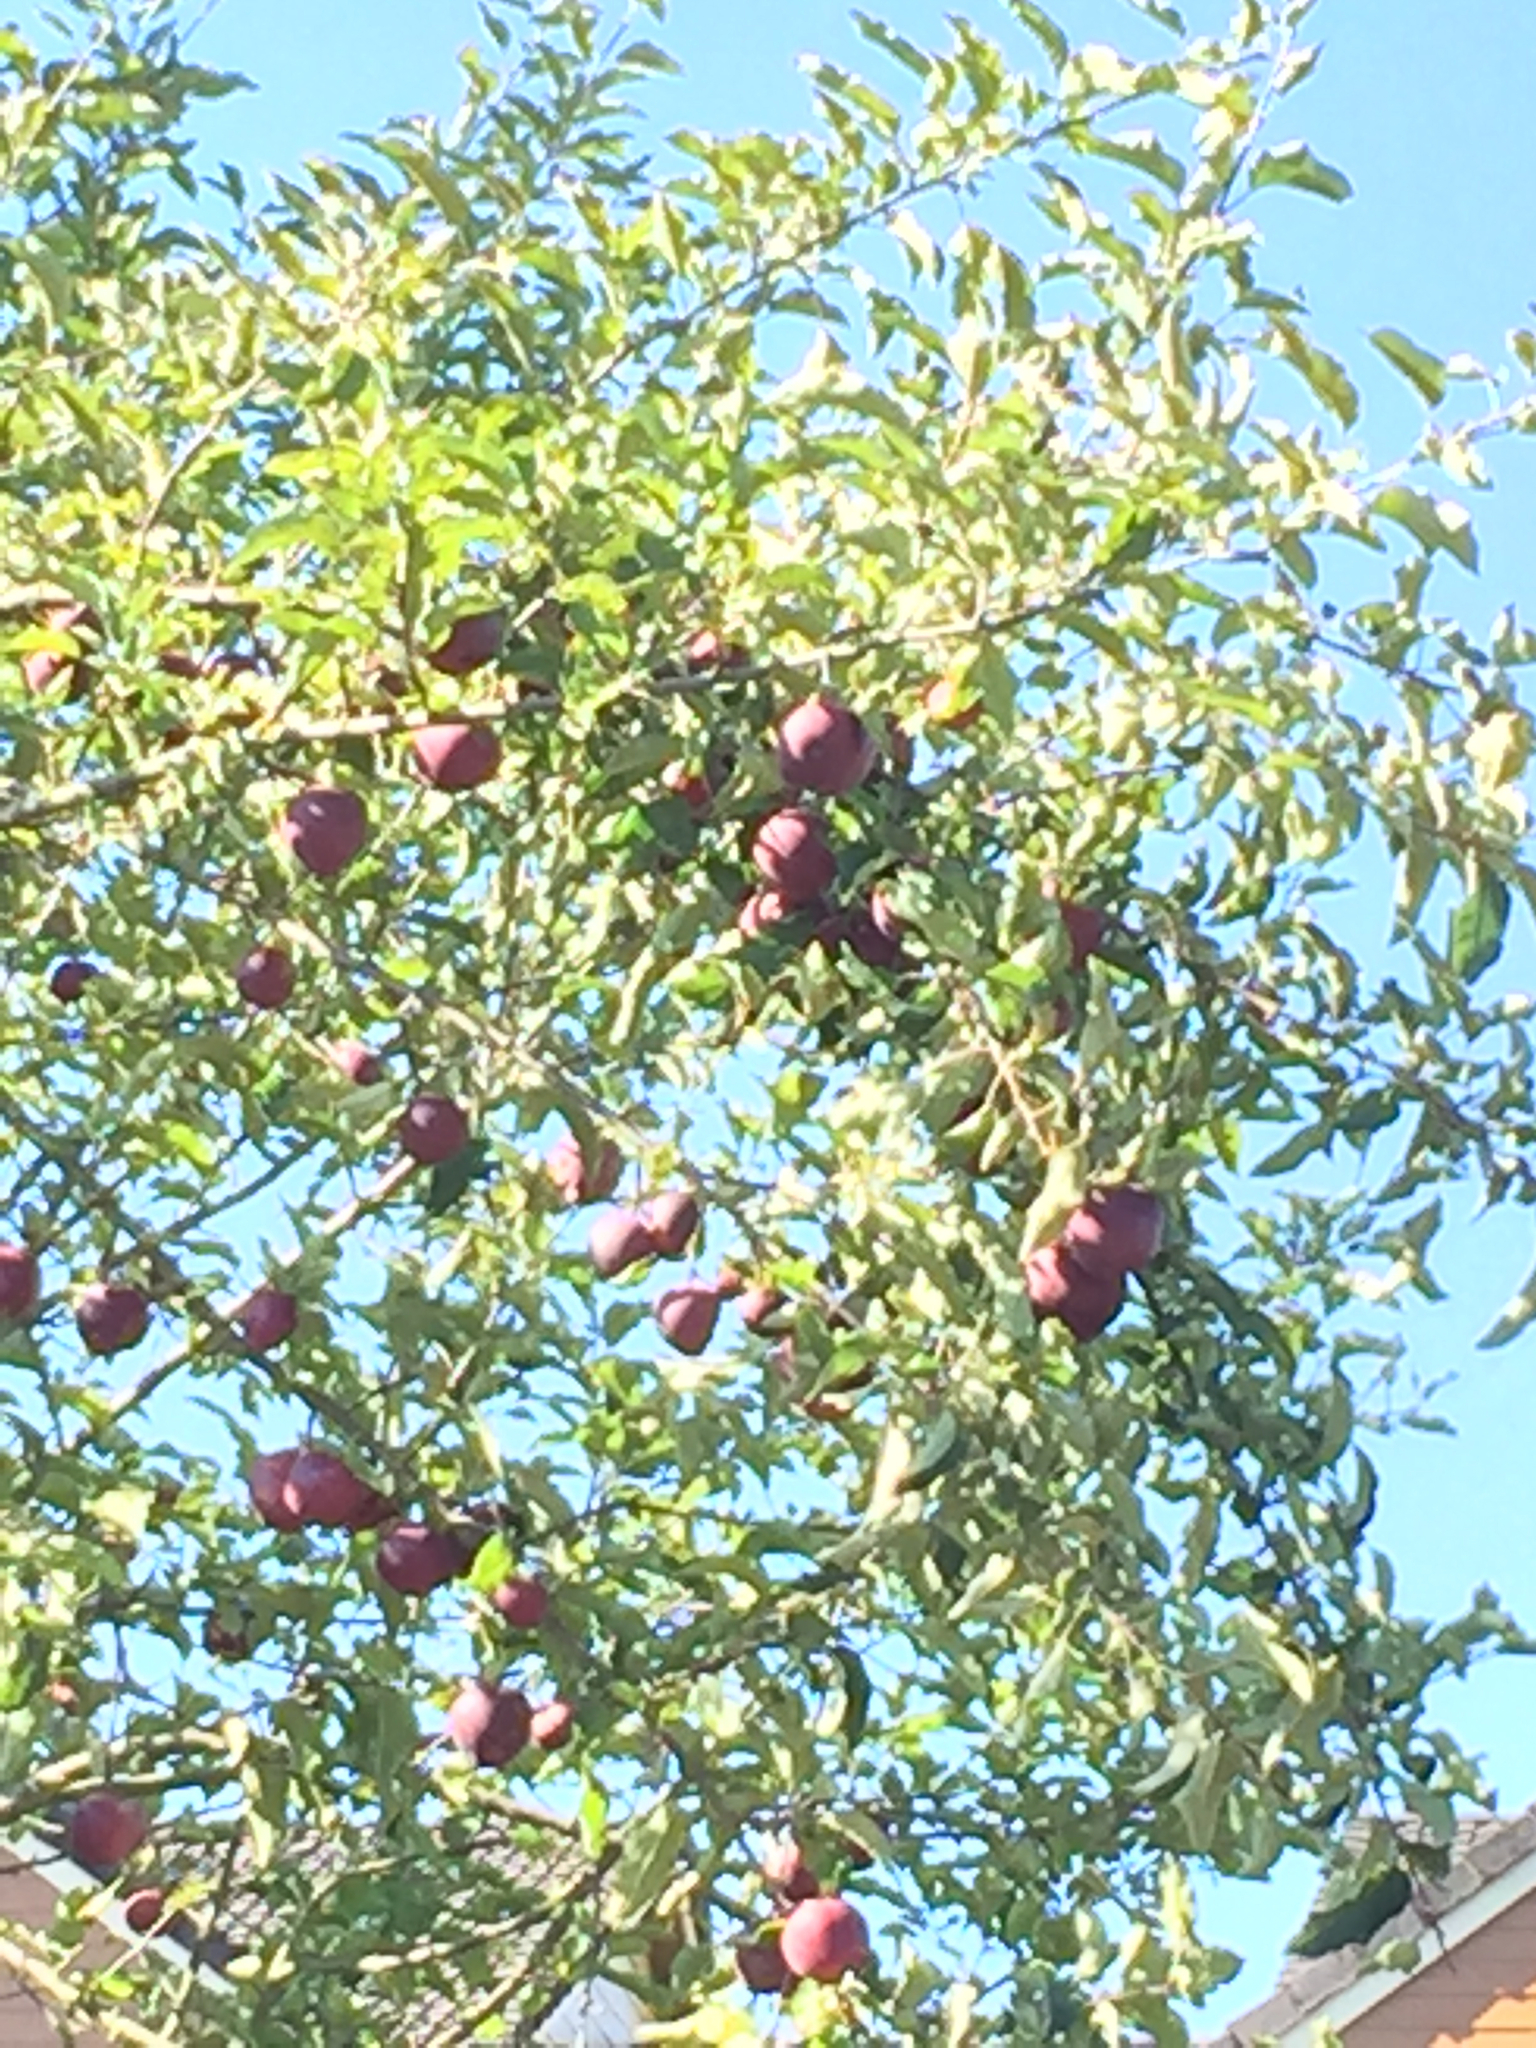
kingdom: Plantae
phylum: Tracheophyta
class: Magnoliopsida
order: Rosales
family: Rosaceae
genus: Malus
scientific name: Malus domestica
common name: Apple
